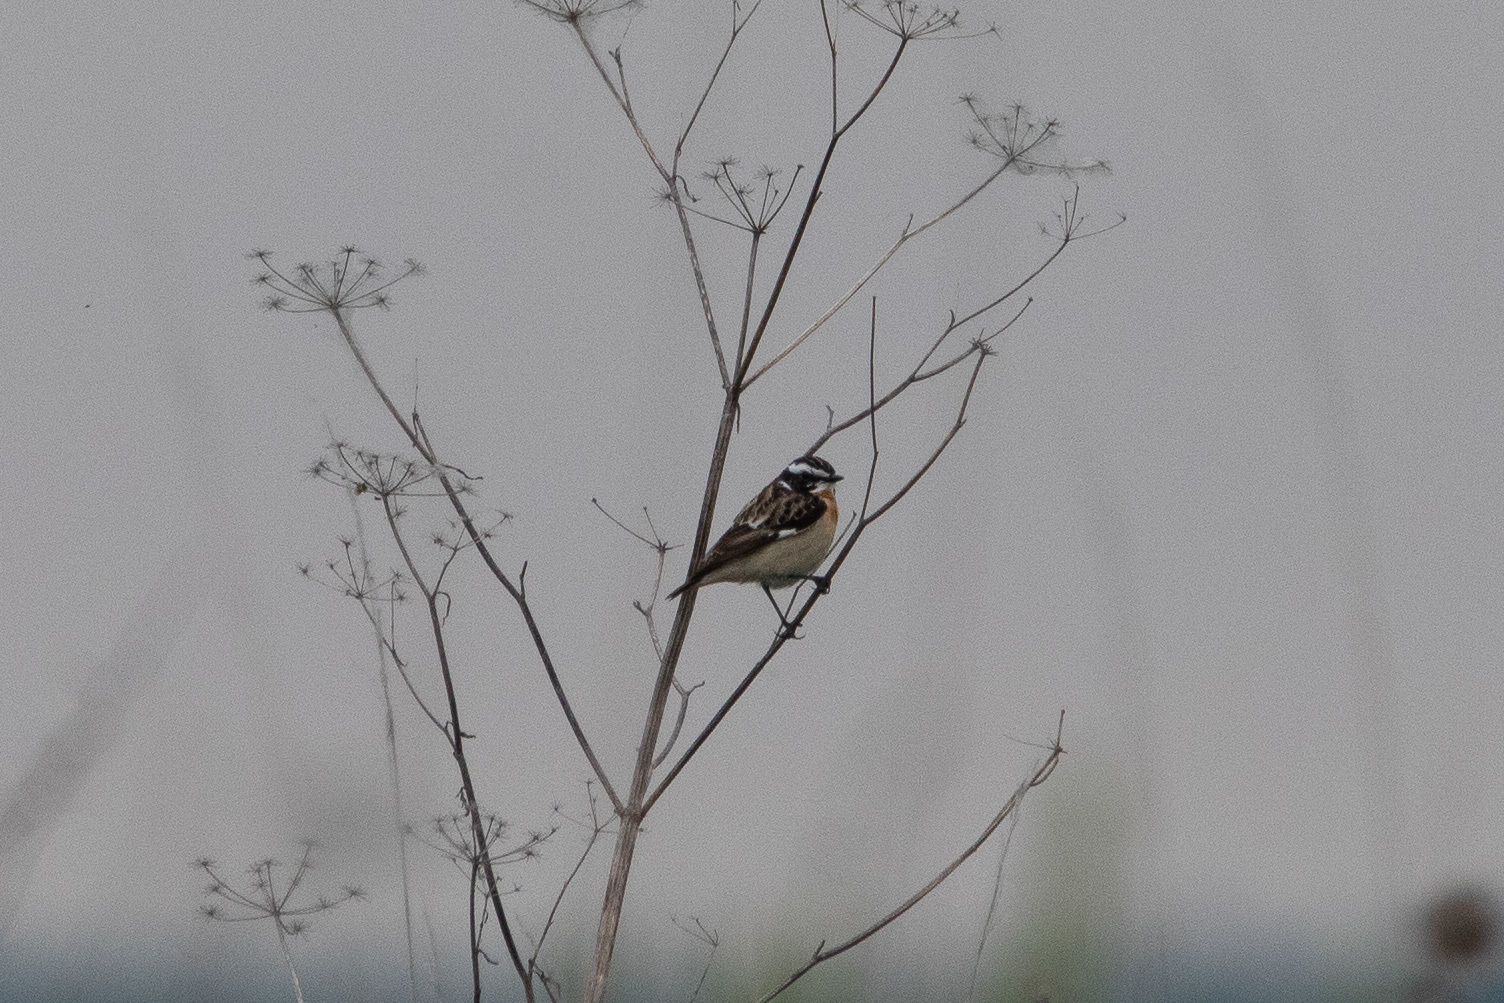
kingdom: Animalia
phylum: Chordata
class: Aves
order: Passeriformes
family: Muscicapidae
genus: Saxicola
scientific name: Saxicola rubetra
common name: Whinchat
